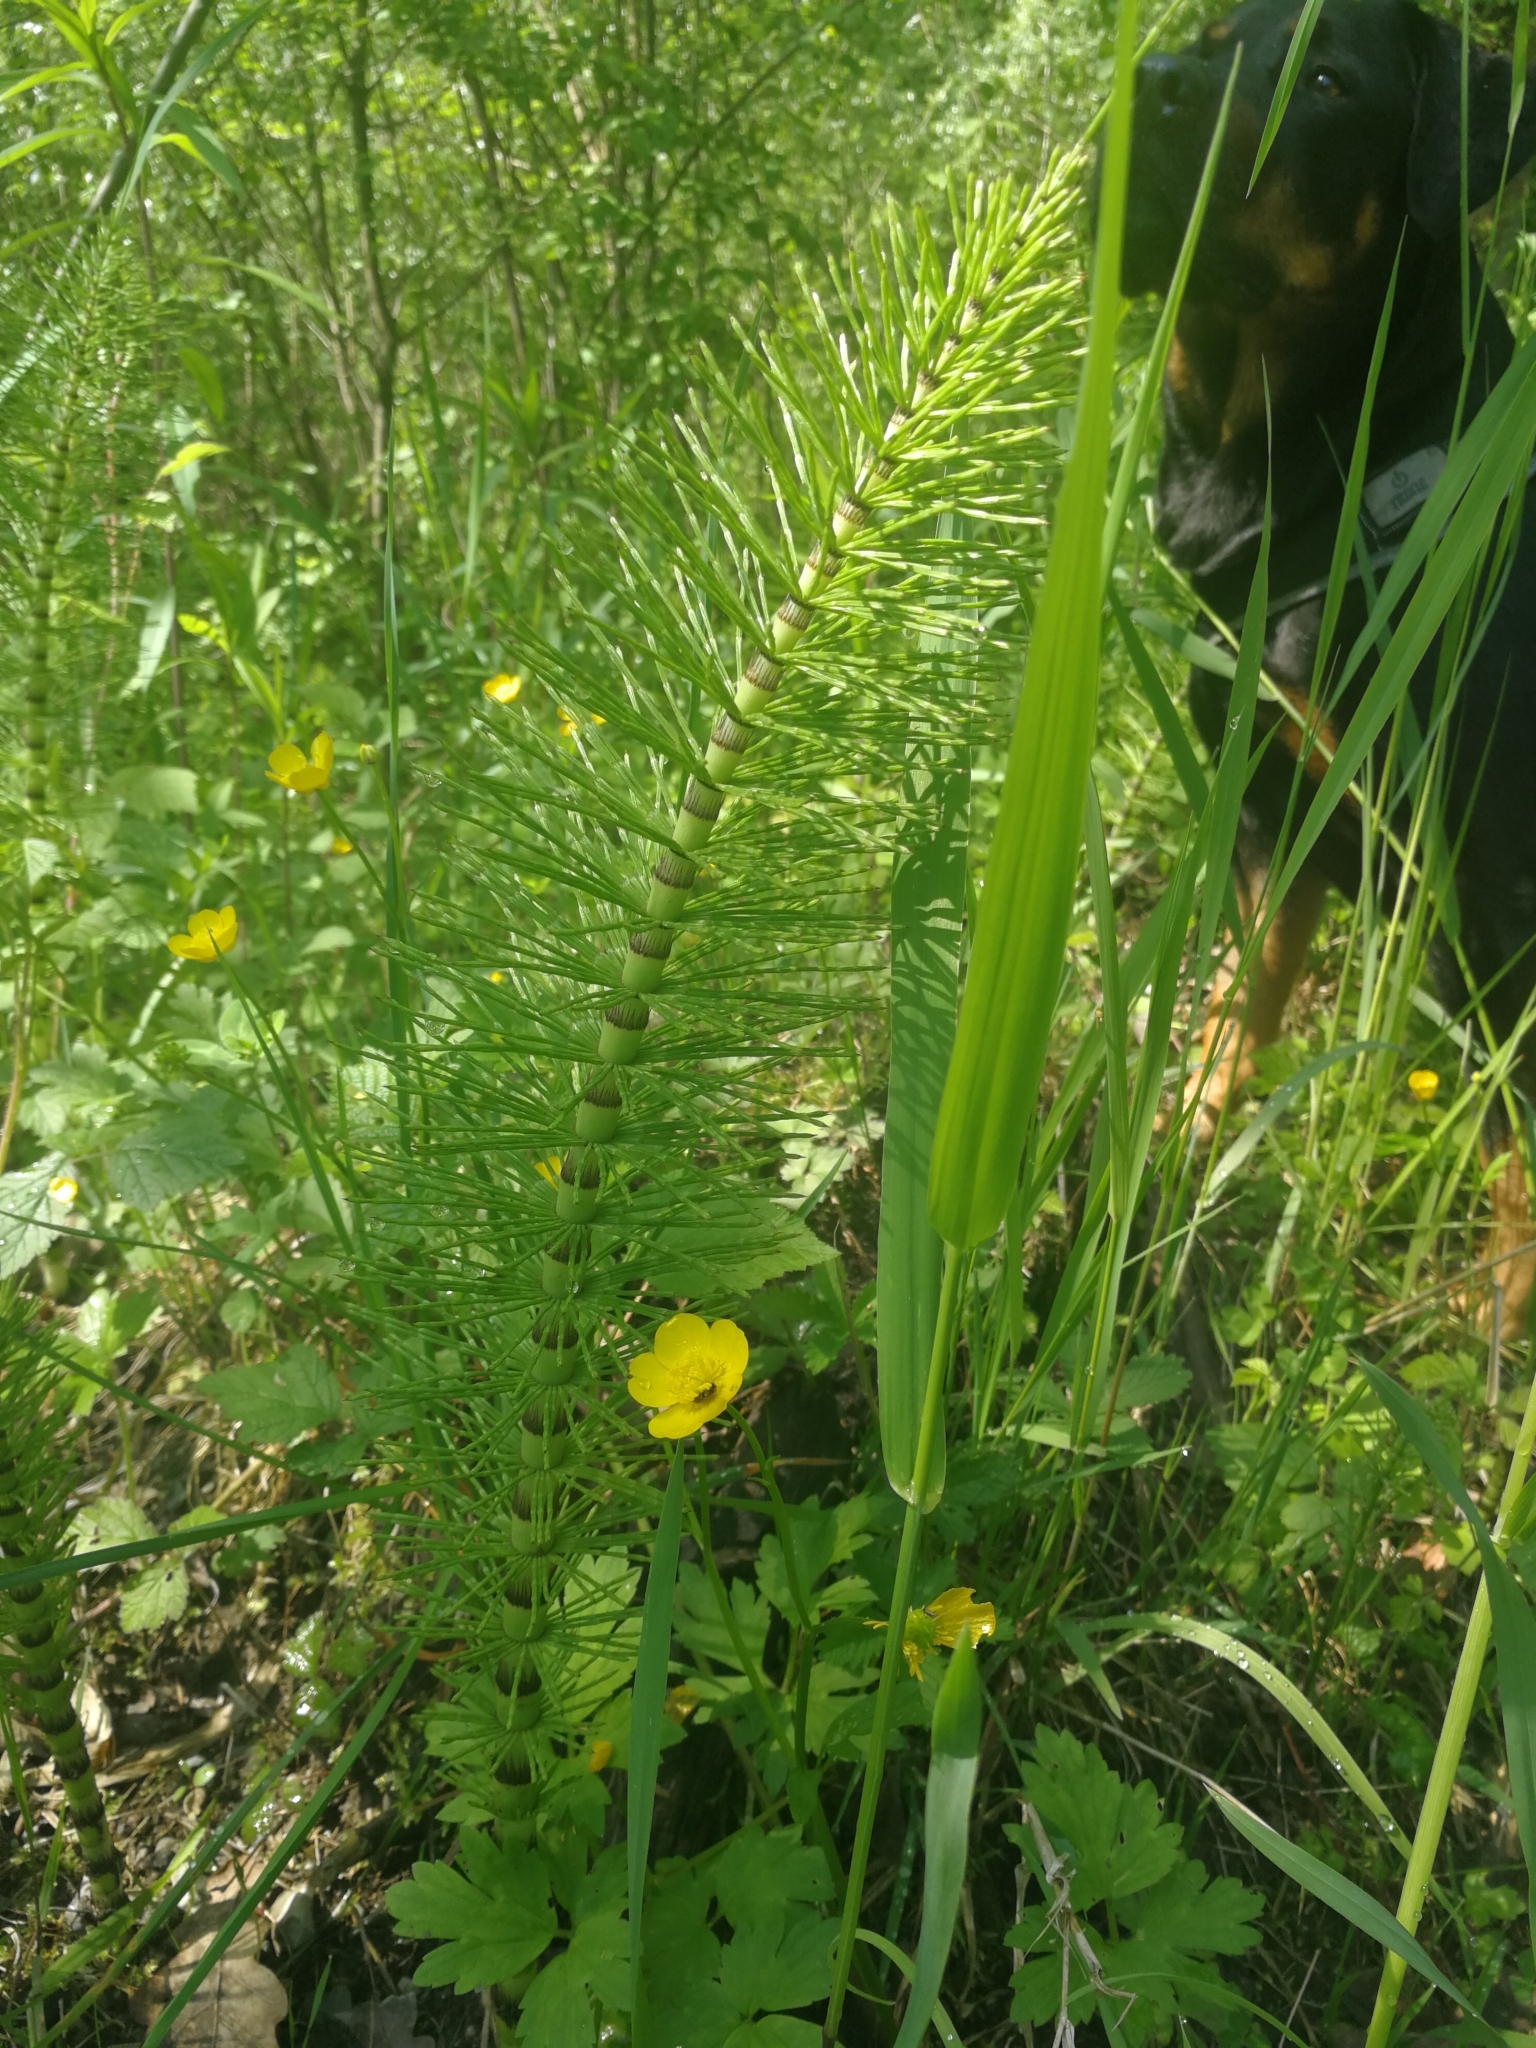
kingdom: Plantae
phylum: Tracheophyta
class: Polypodiopsida
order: Equisetales
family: Equisetaceae
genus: Equisetum
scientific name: Equisetum telmateia
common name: Great horsetail
